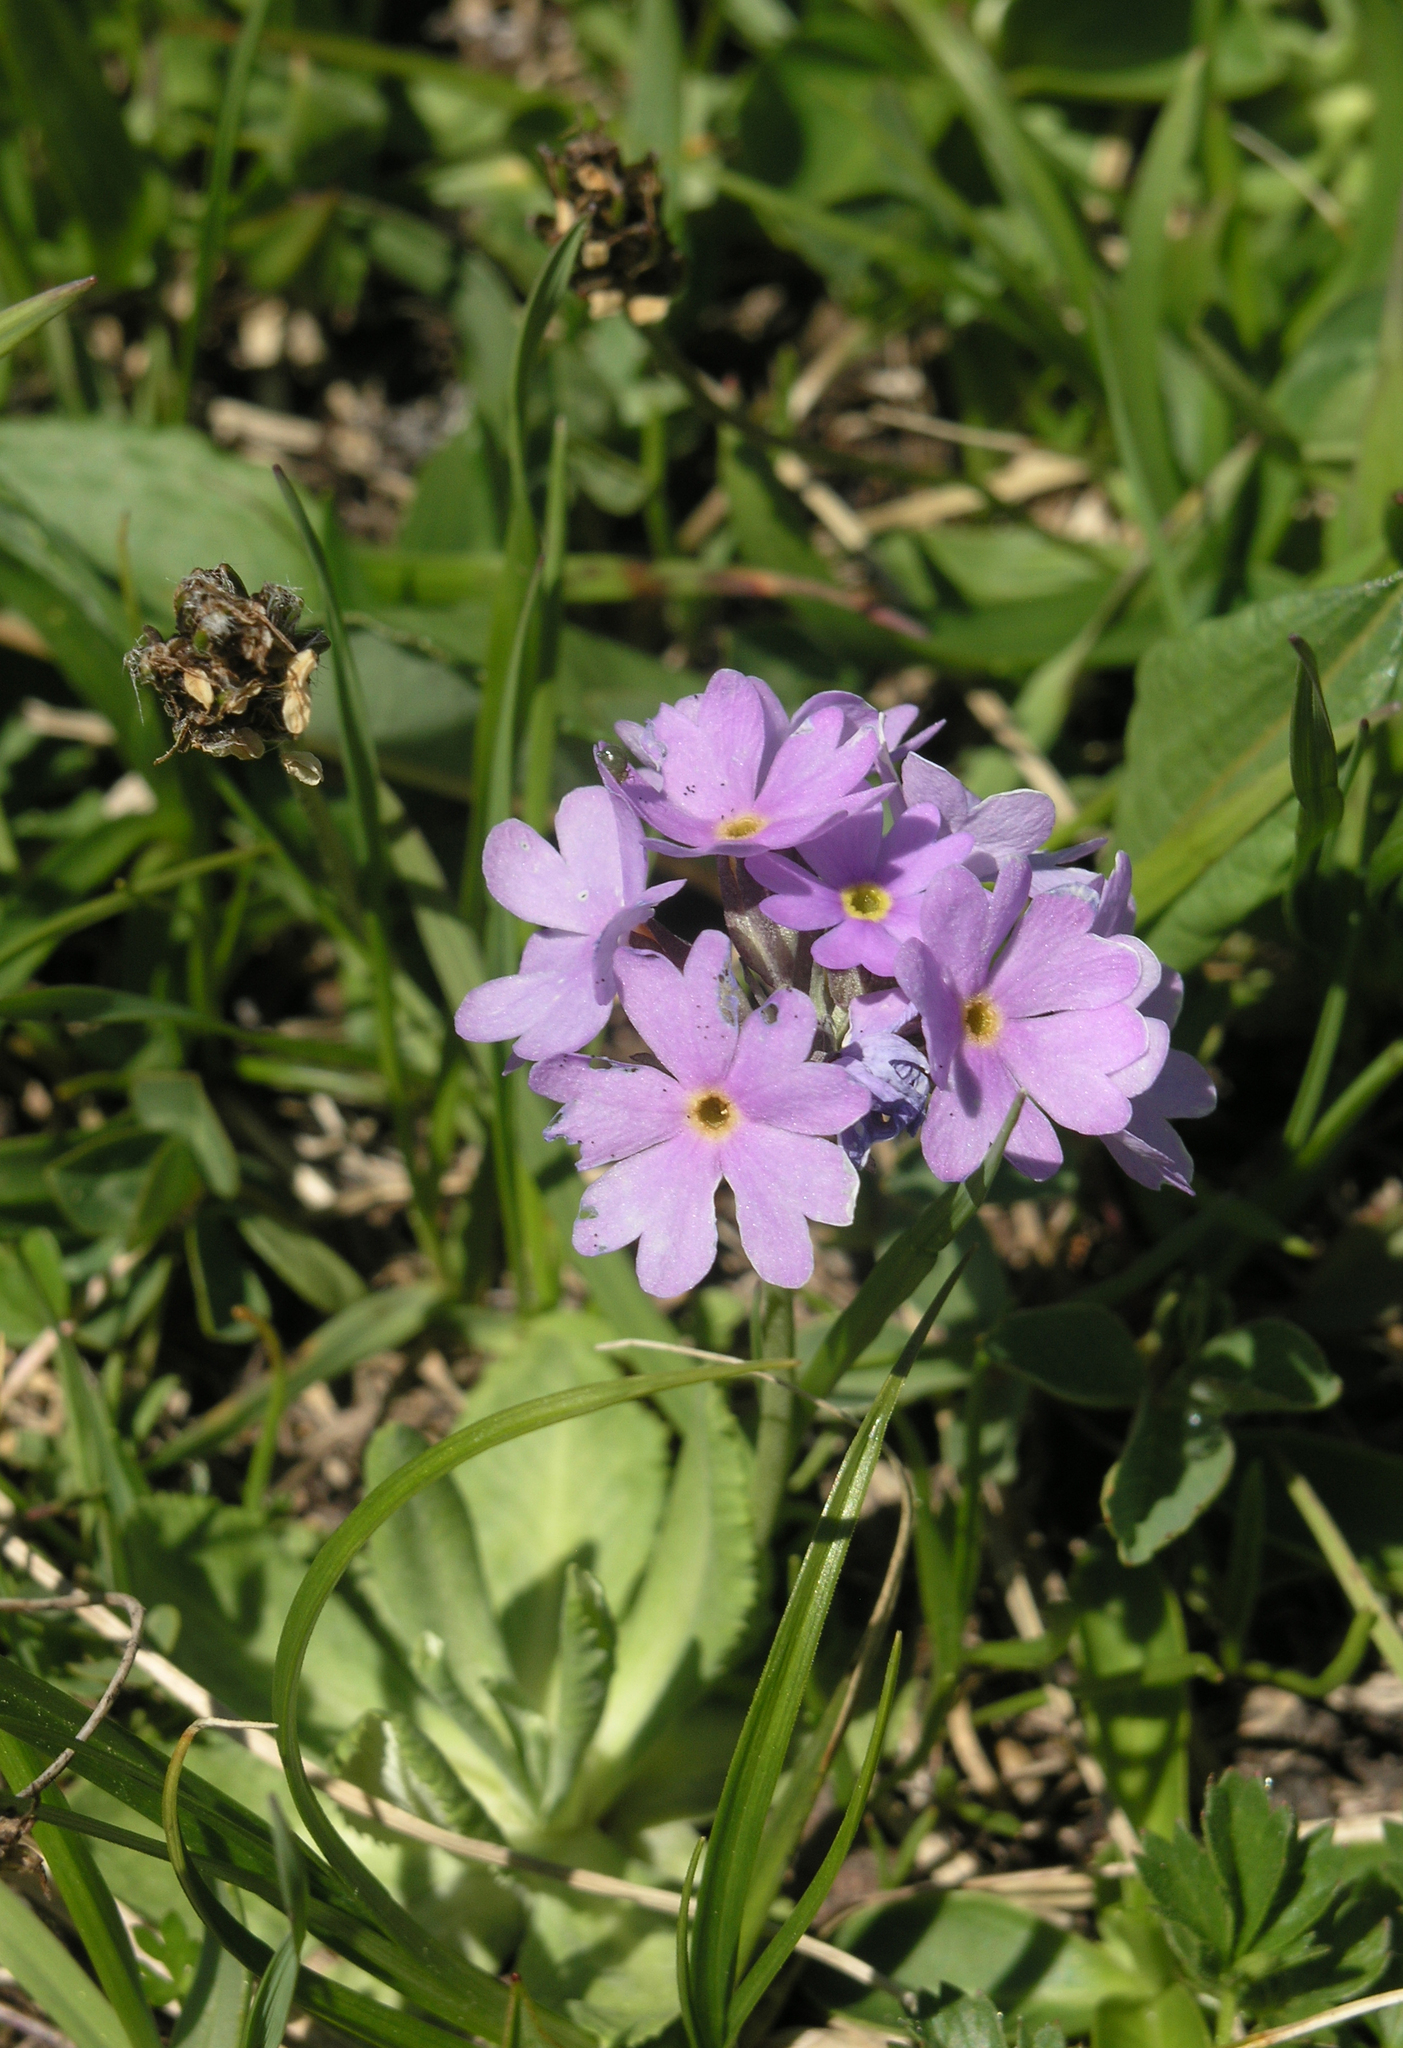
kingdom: Plantae
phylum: Tracheophyta
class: Magnoliopsida
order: Ericales
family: Primulaceae
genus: Primula
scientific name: Primula algida
